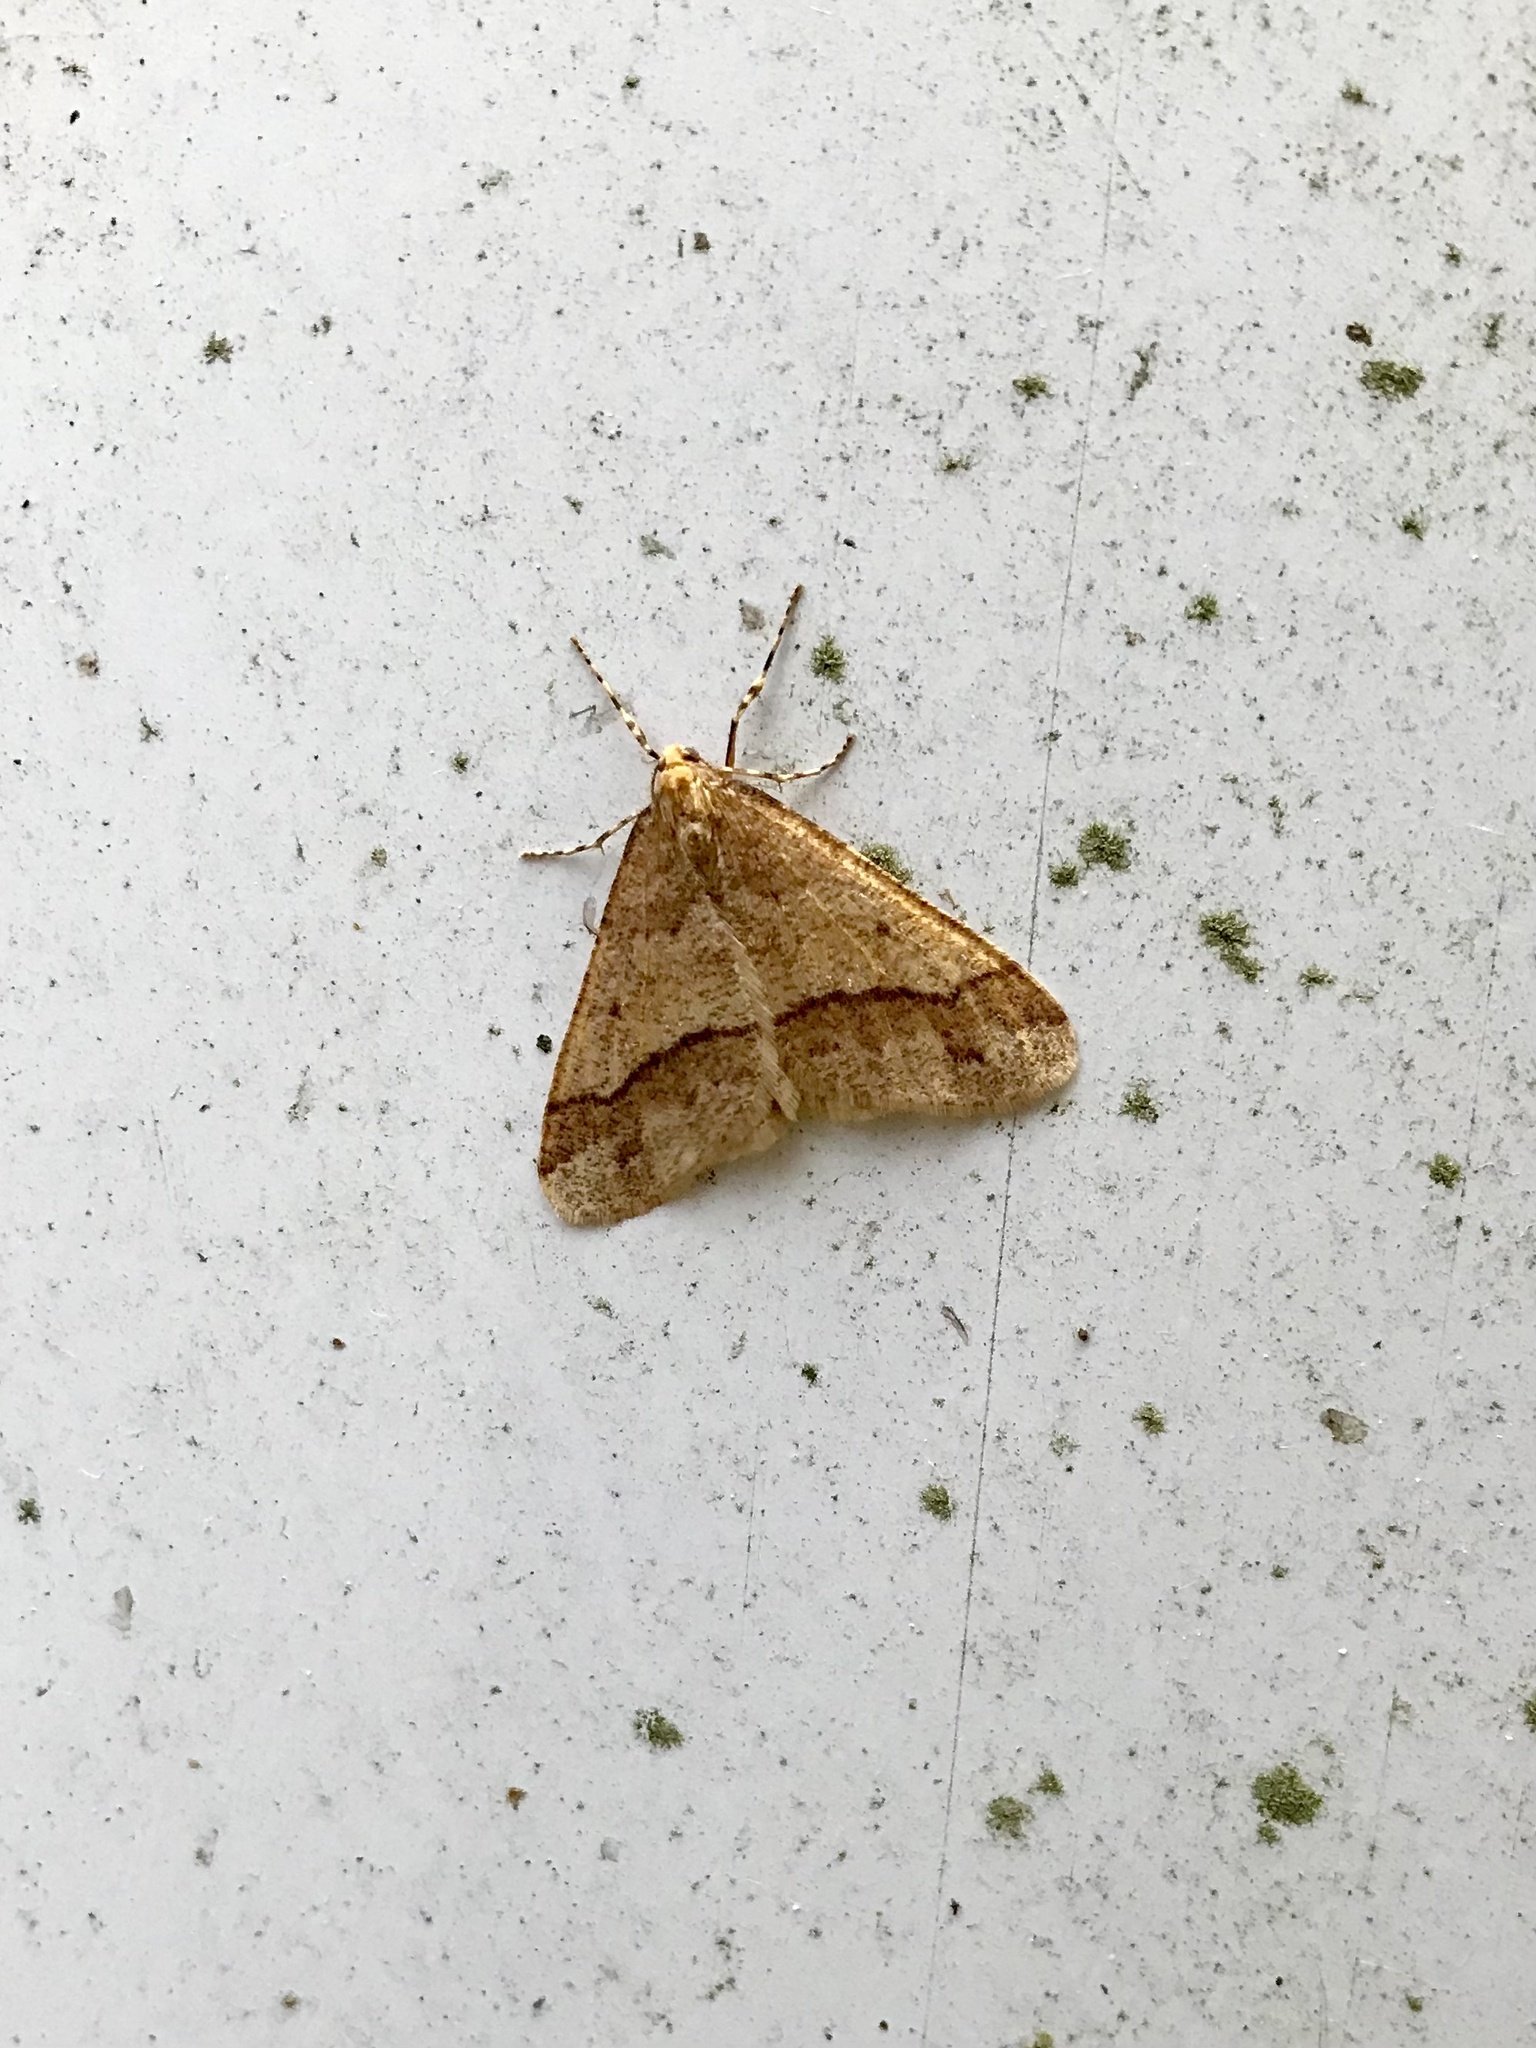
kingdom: Animalia
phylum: Arthropoda
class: Insecta
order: Lepidoptera
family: Geometridae
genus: Erannis
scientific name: Erannis tiliaria
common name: Linden looper
